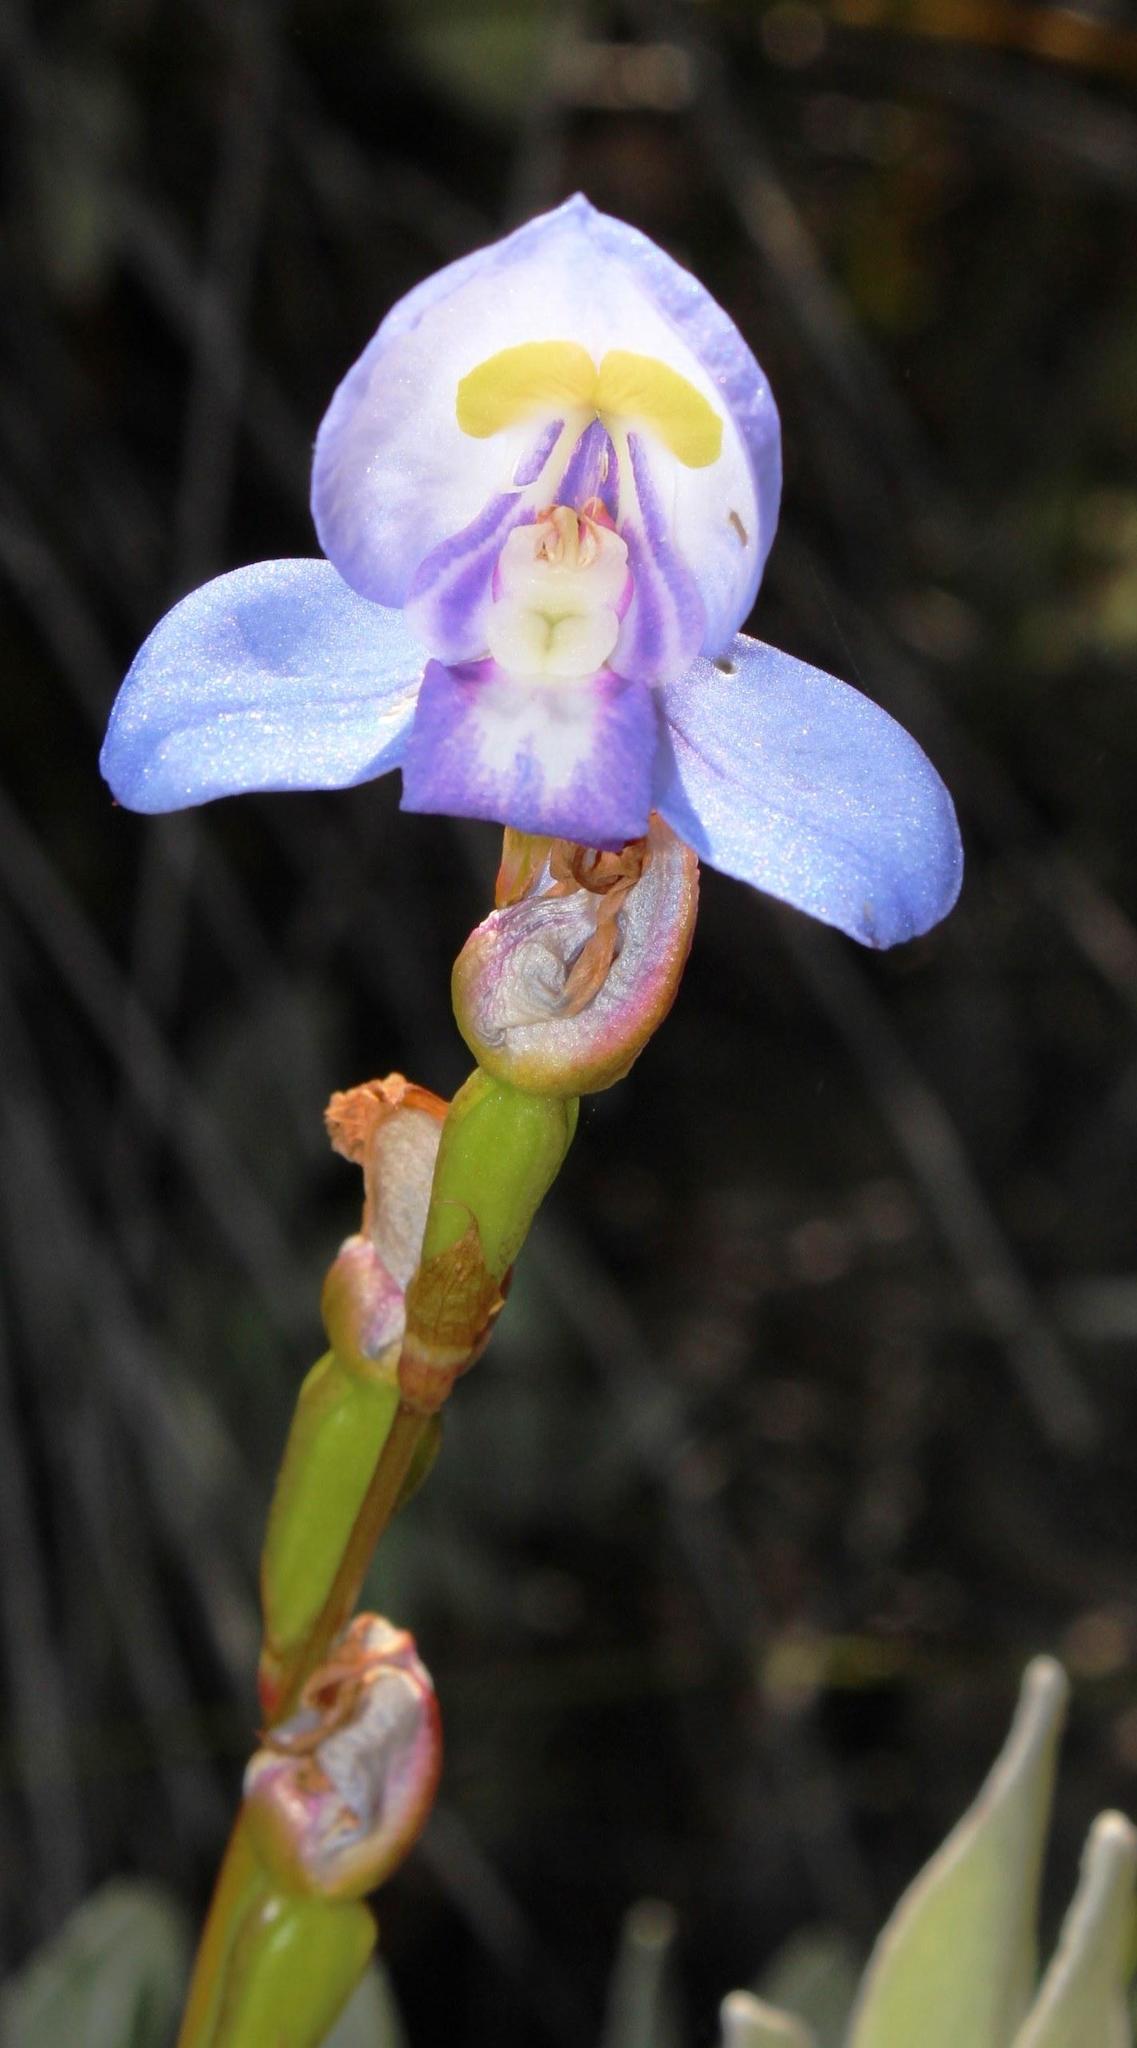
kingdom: Plantae
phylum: Tracheophyta
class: Liliopsida
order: Asparagales
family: Orchidaceae
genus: Disa
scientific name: Disa graminifolia
